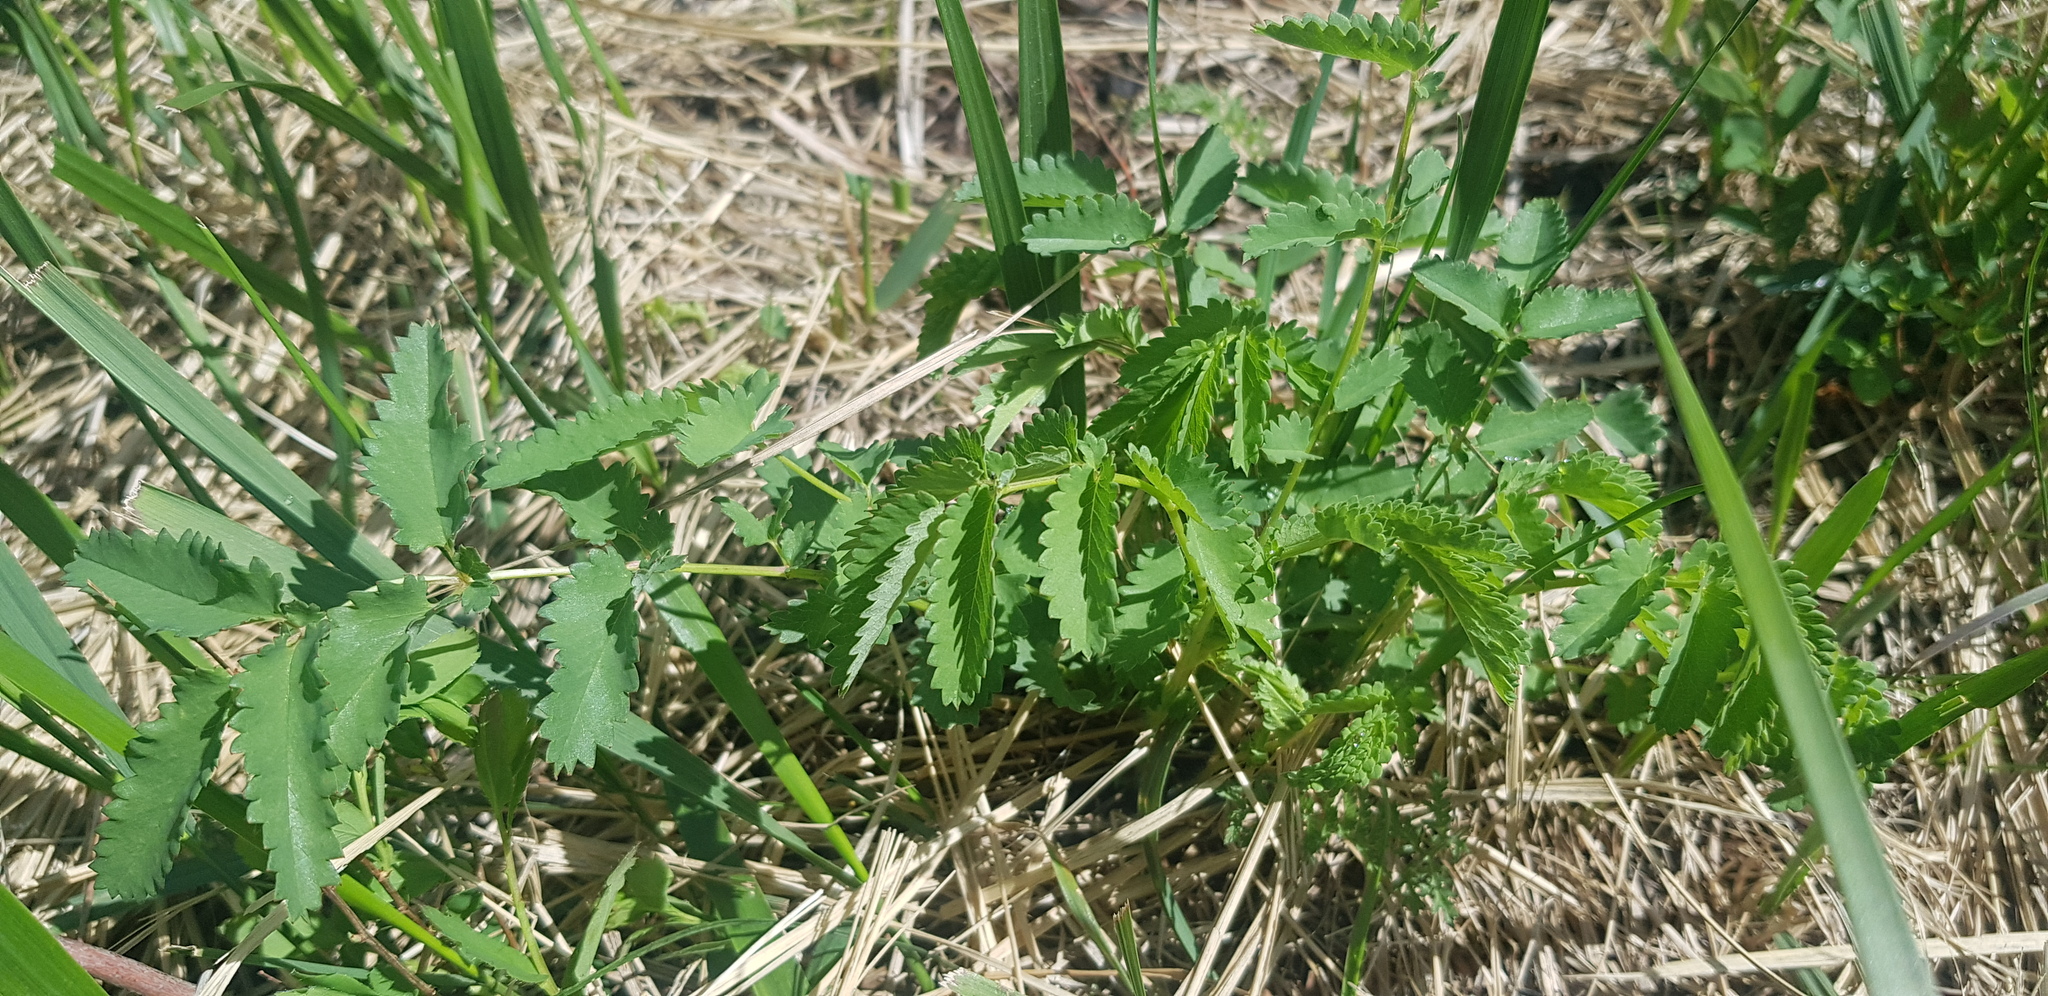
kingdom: Plantae
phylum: Tracheophyta
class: Magnoliopsida
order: Rosales
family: Rosaceae
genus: Sanguisorba
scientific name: Sanguisorba officinalis
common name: Great burnet
